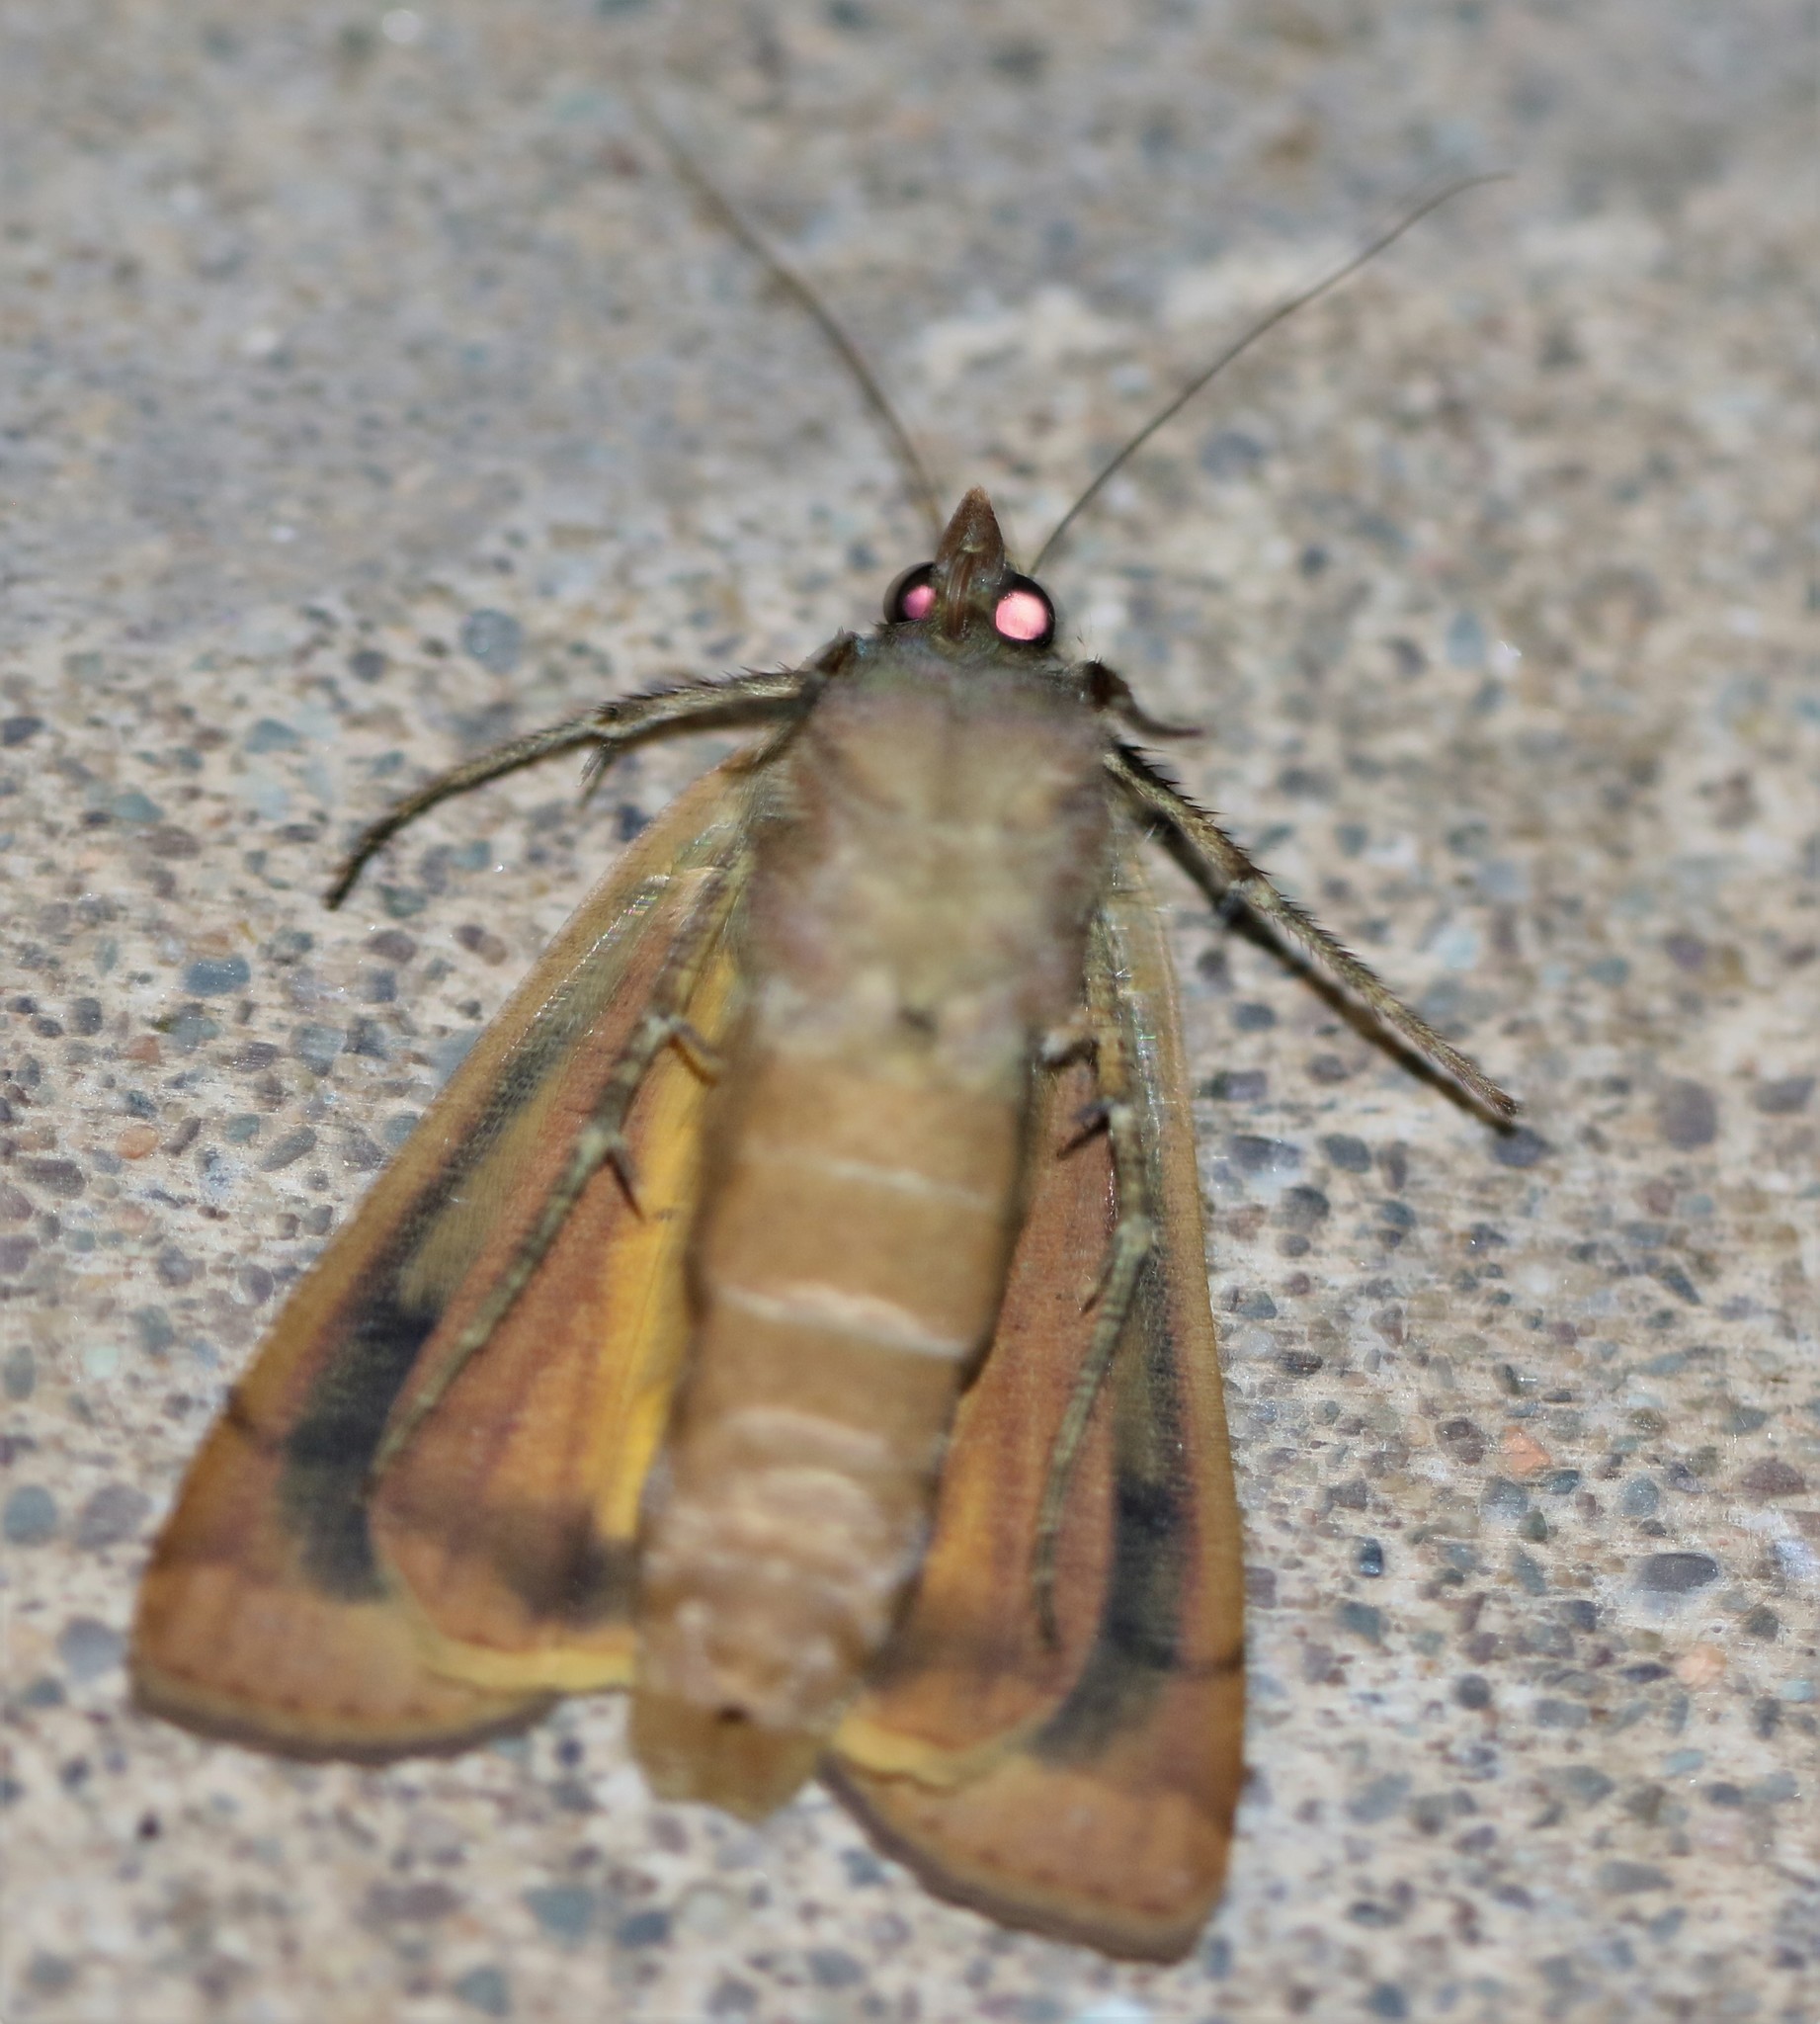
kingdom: Animalia
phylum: Arthropoda
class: Insecta
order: Lepidoptera
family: Noctuidae
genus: Noctua
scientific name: Noctua pronuba
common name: Large yellow underwing
